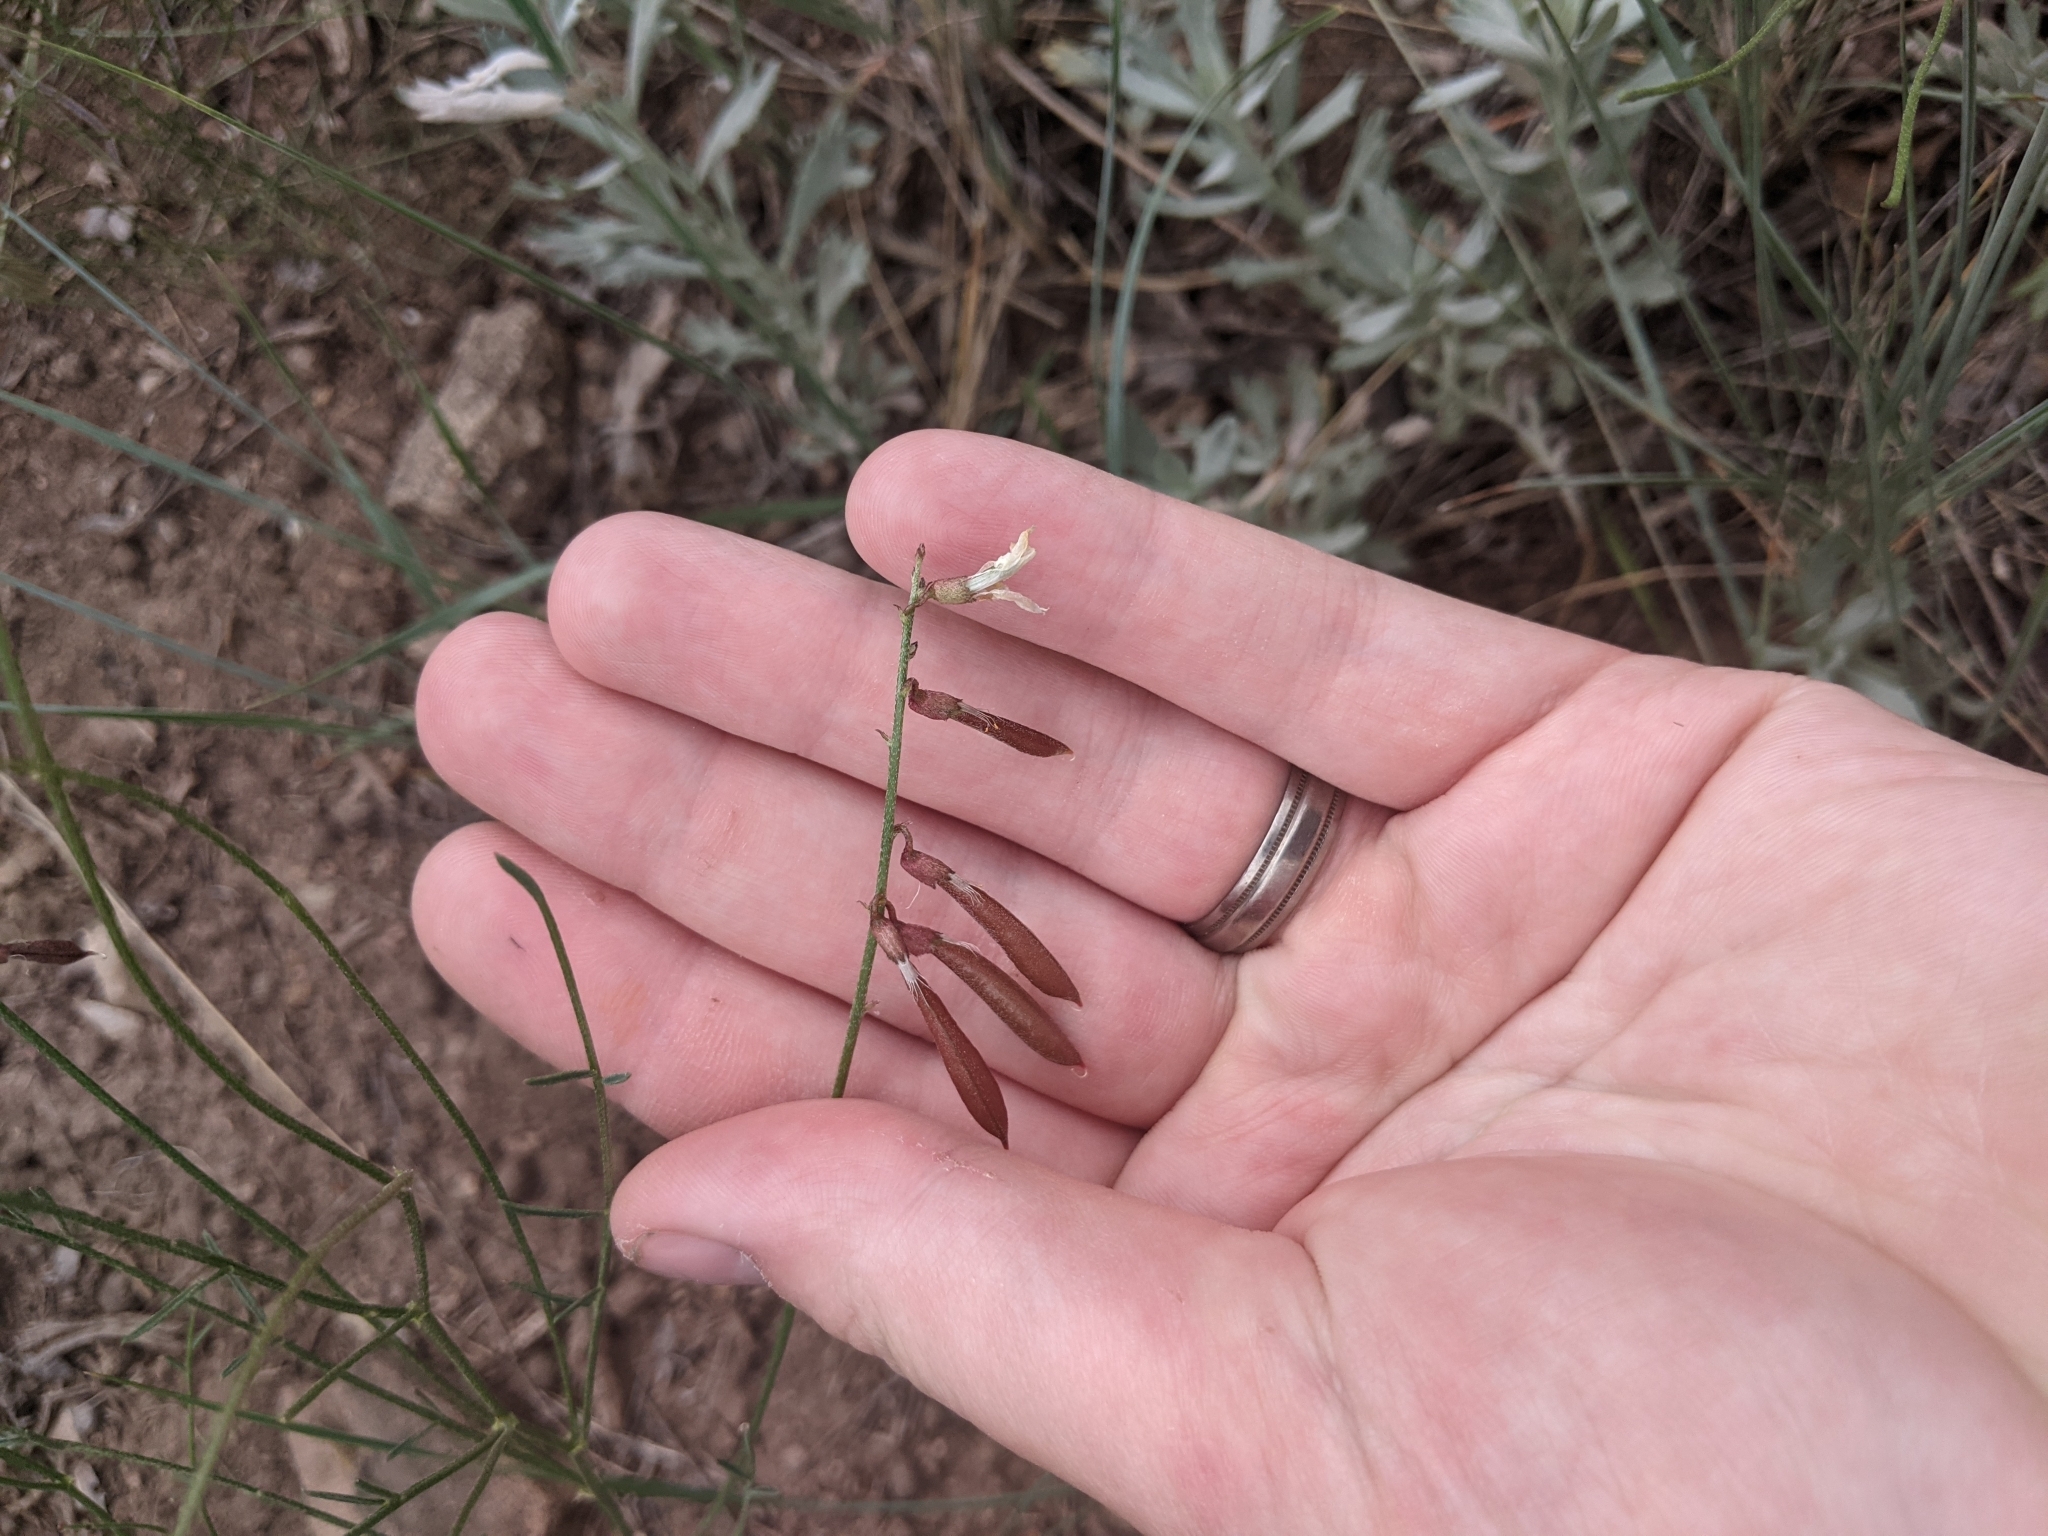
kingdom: Plantae
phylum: Tracheophyta
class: Magnoliopsida
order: Fabales
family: Fabaceae
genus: Astragalus
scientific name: Astragalus convallarius
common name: Lesser rushy milk-vetch
